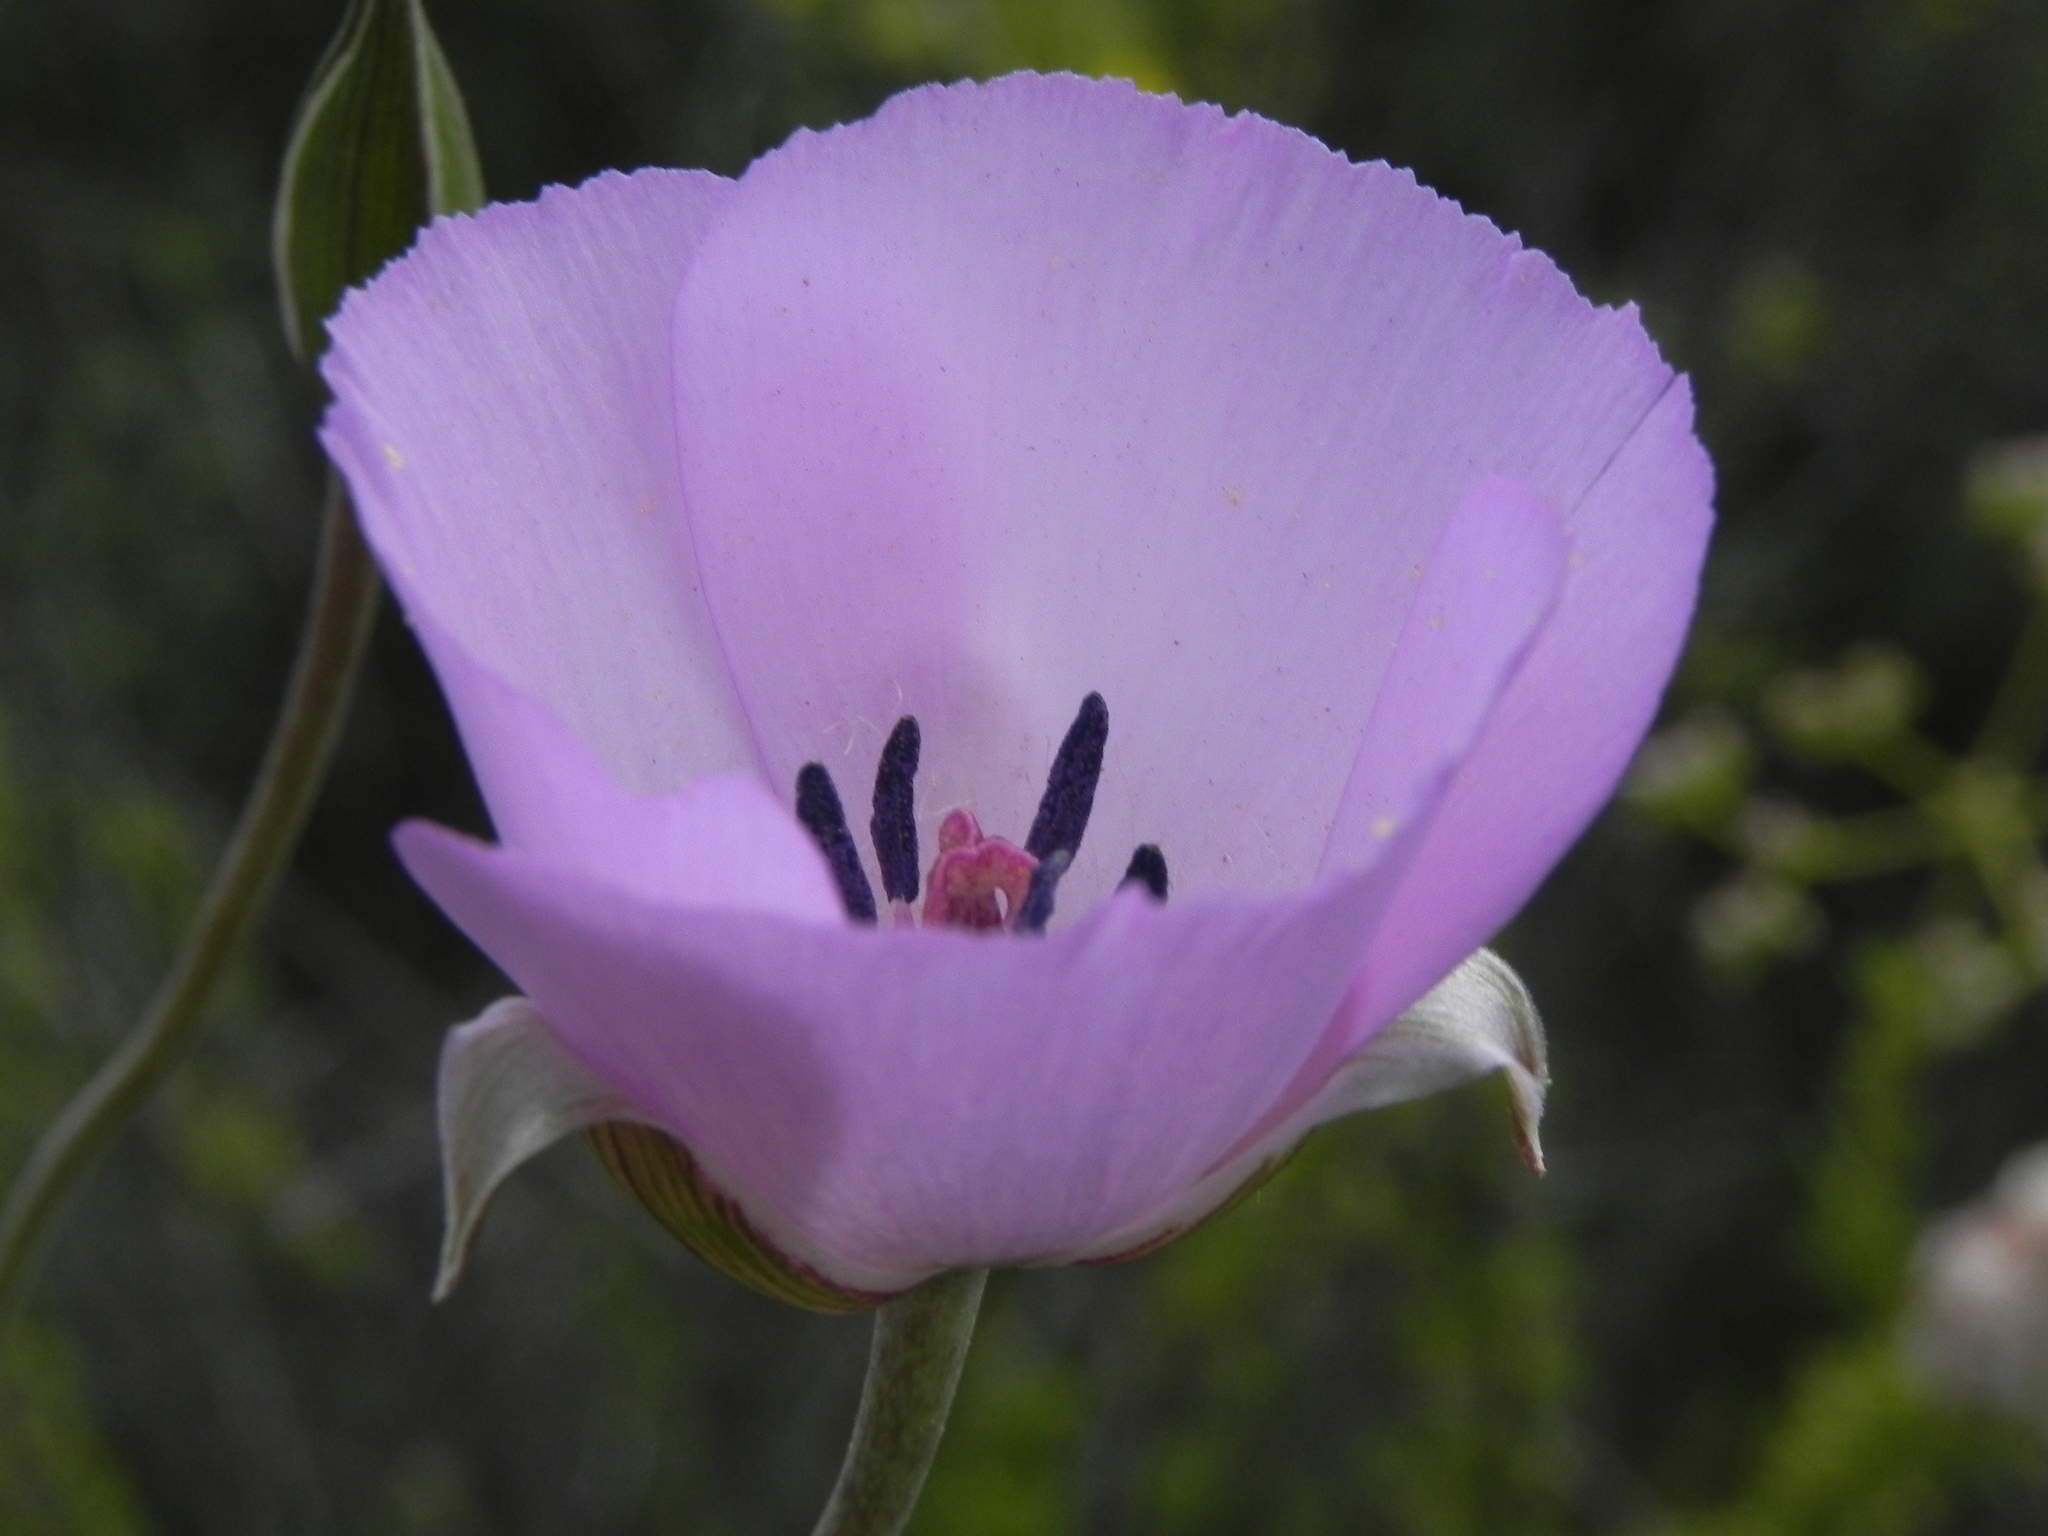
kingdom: Plantae
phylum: Tracheophyta
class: Liliopsida
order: Liliales
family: Liliaceae
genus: Calochortus
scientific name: Calochortus splendens
